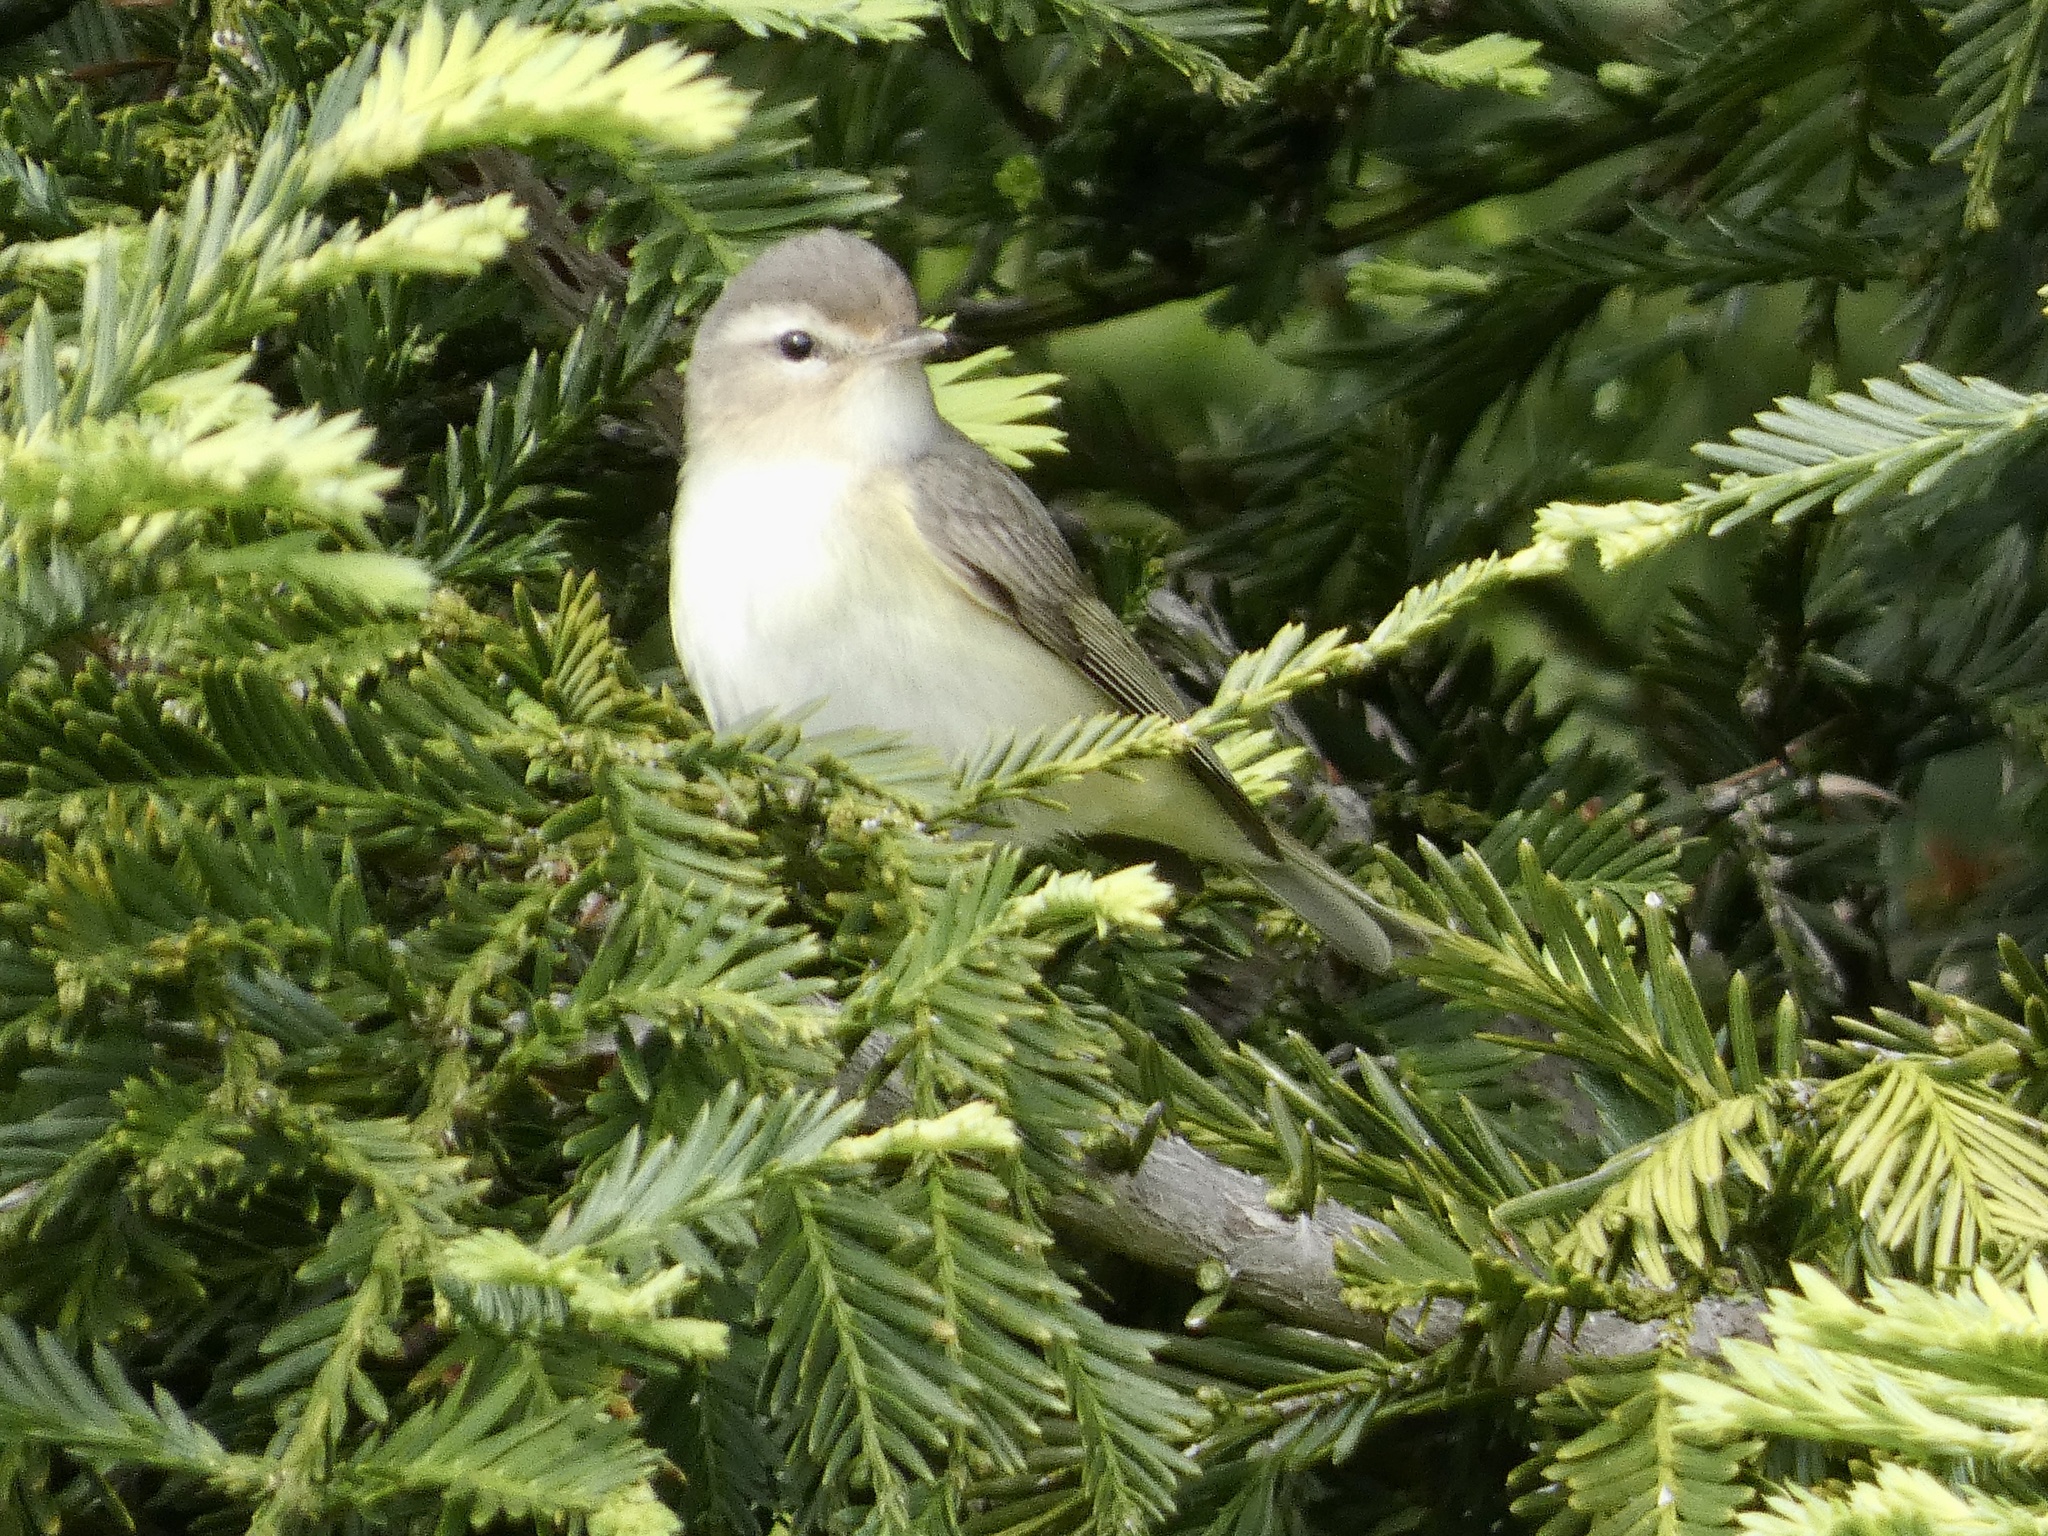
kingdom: Animalia
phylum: Chordata
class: Aves
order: Passeriformes
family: Vireonidae
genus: Vireo
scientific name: Vireo gilvus
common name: Warbling vireo
